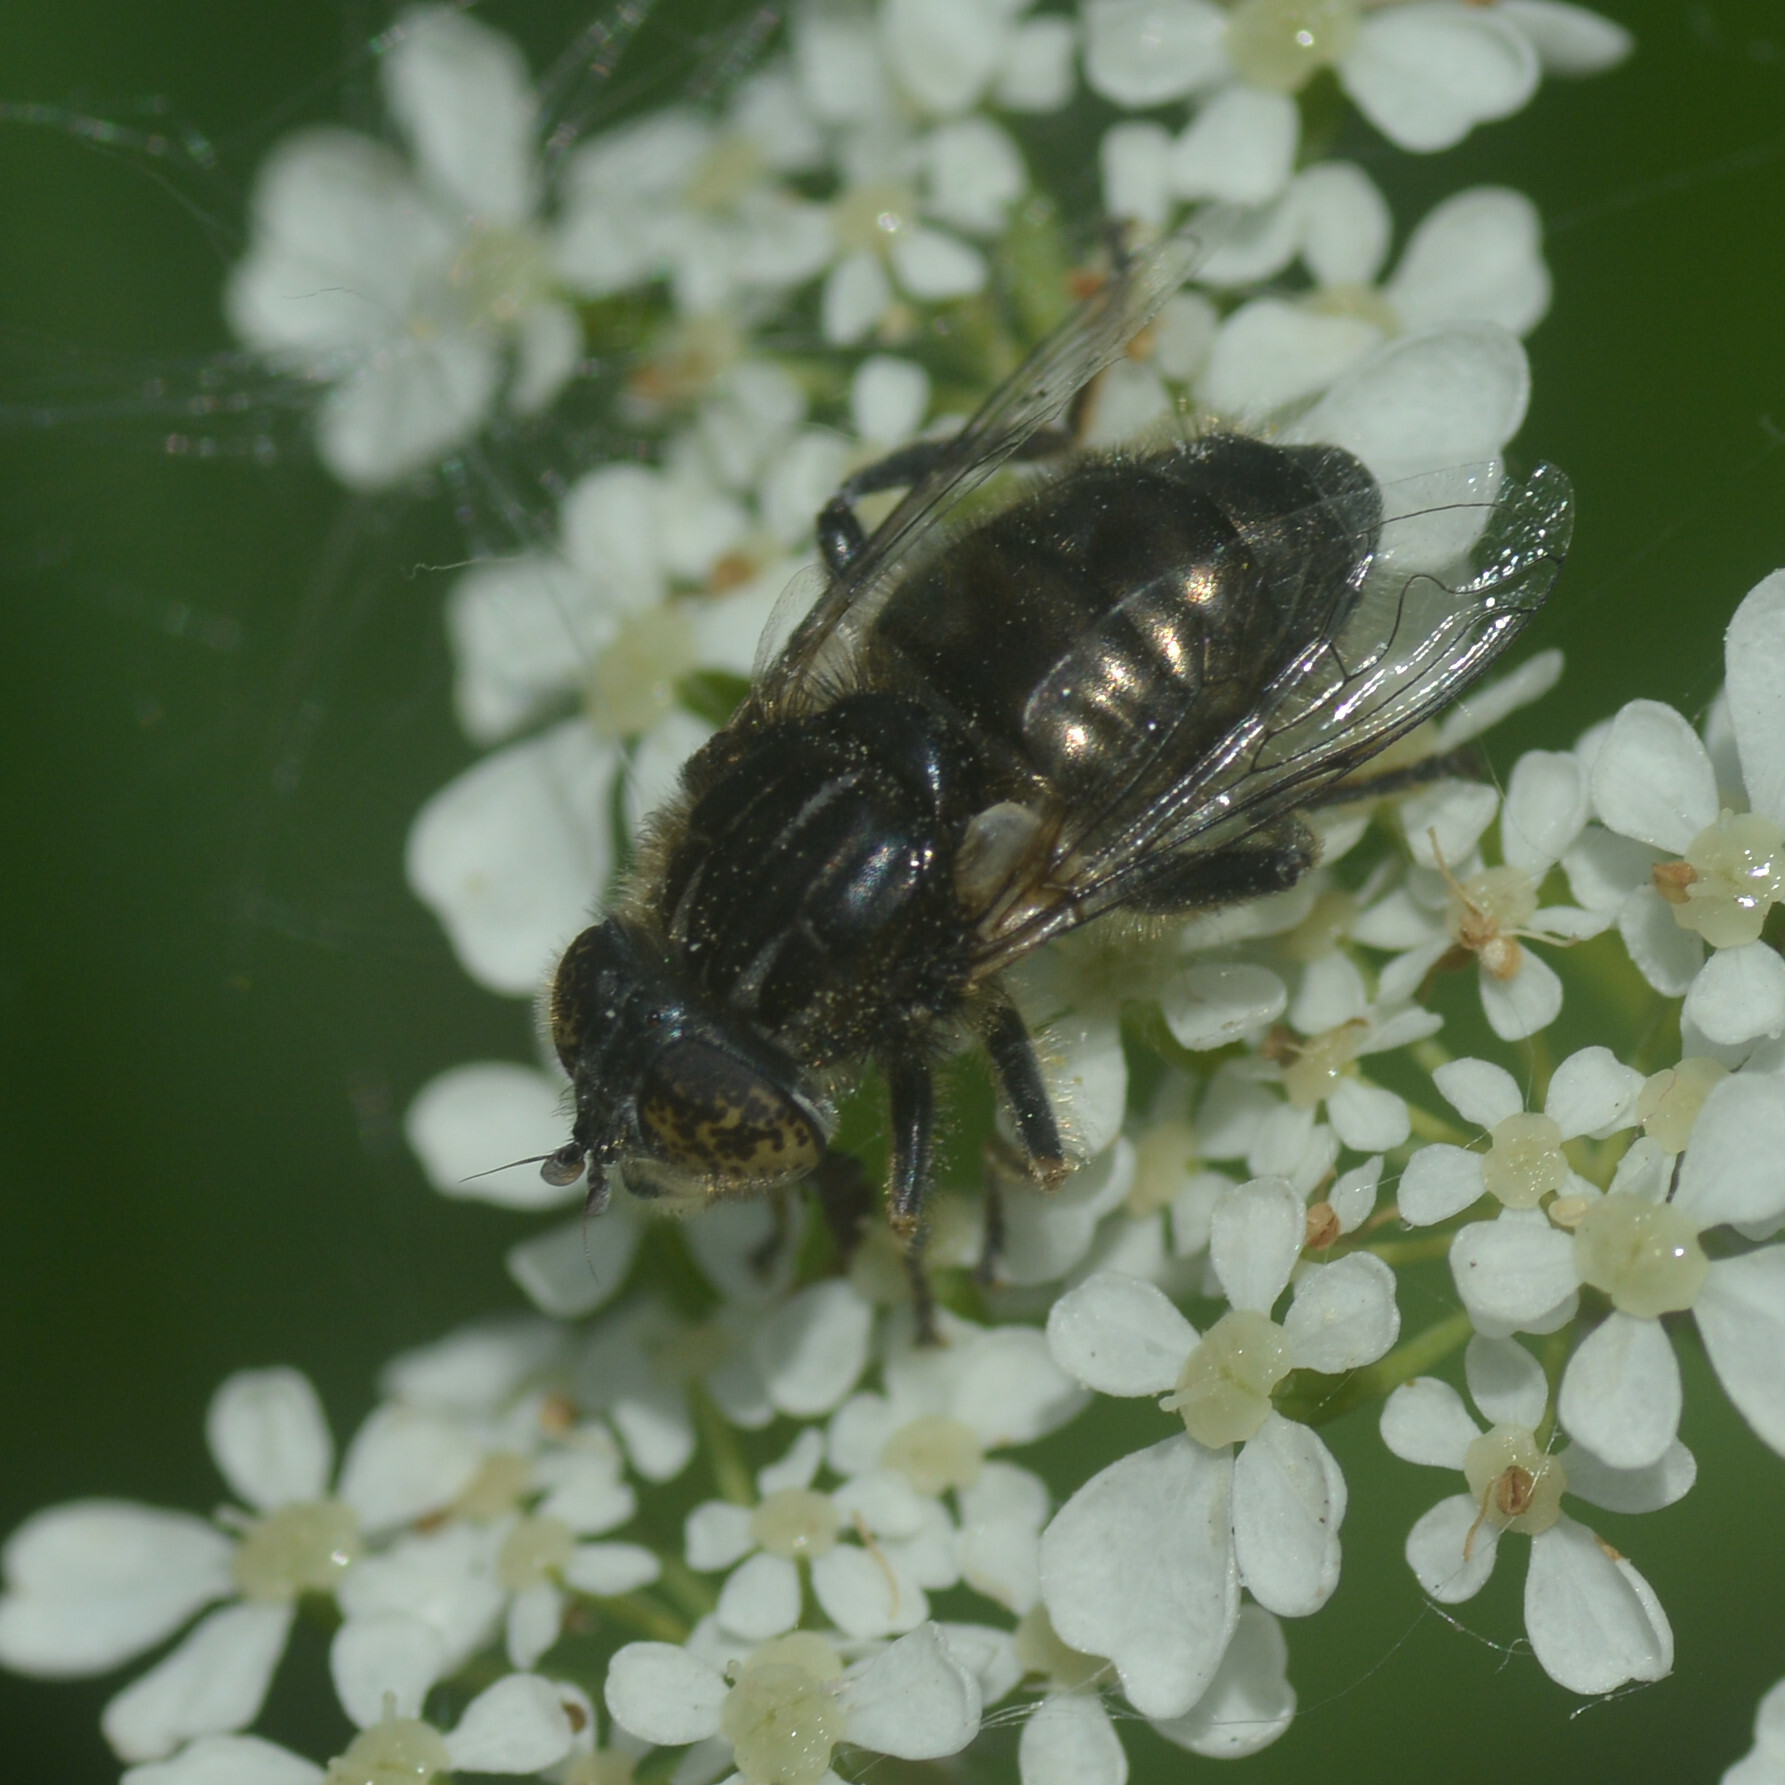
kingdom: Animalia
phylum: Arthropoda
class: Insecta
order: Diptera
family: Syrphidae
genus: Eristalinus
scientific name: Eristalinus sepulchralis
